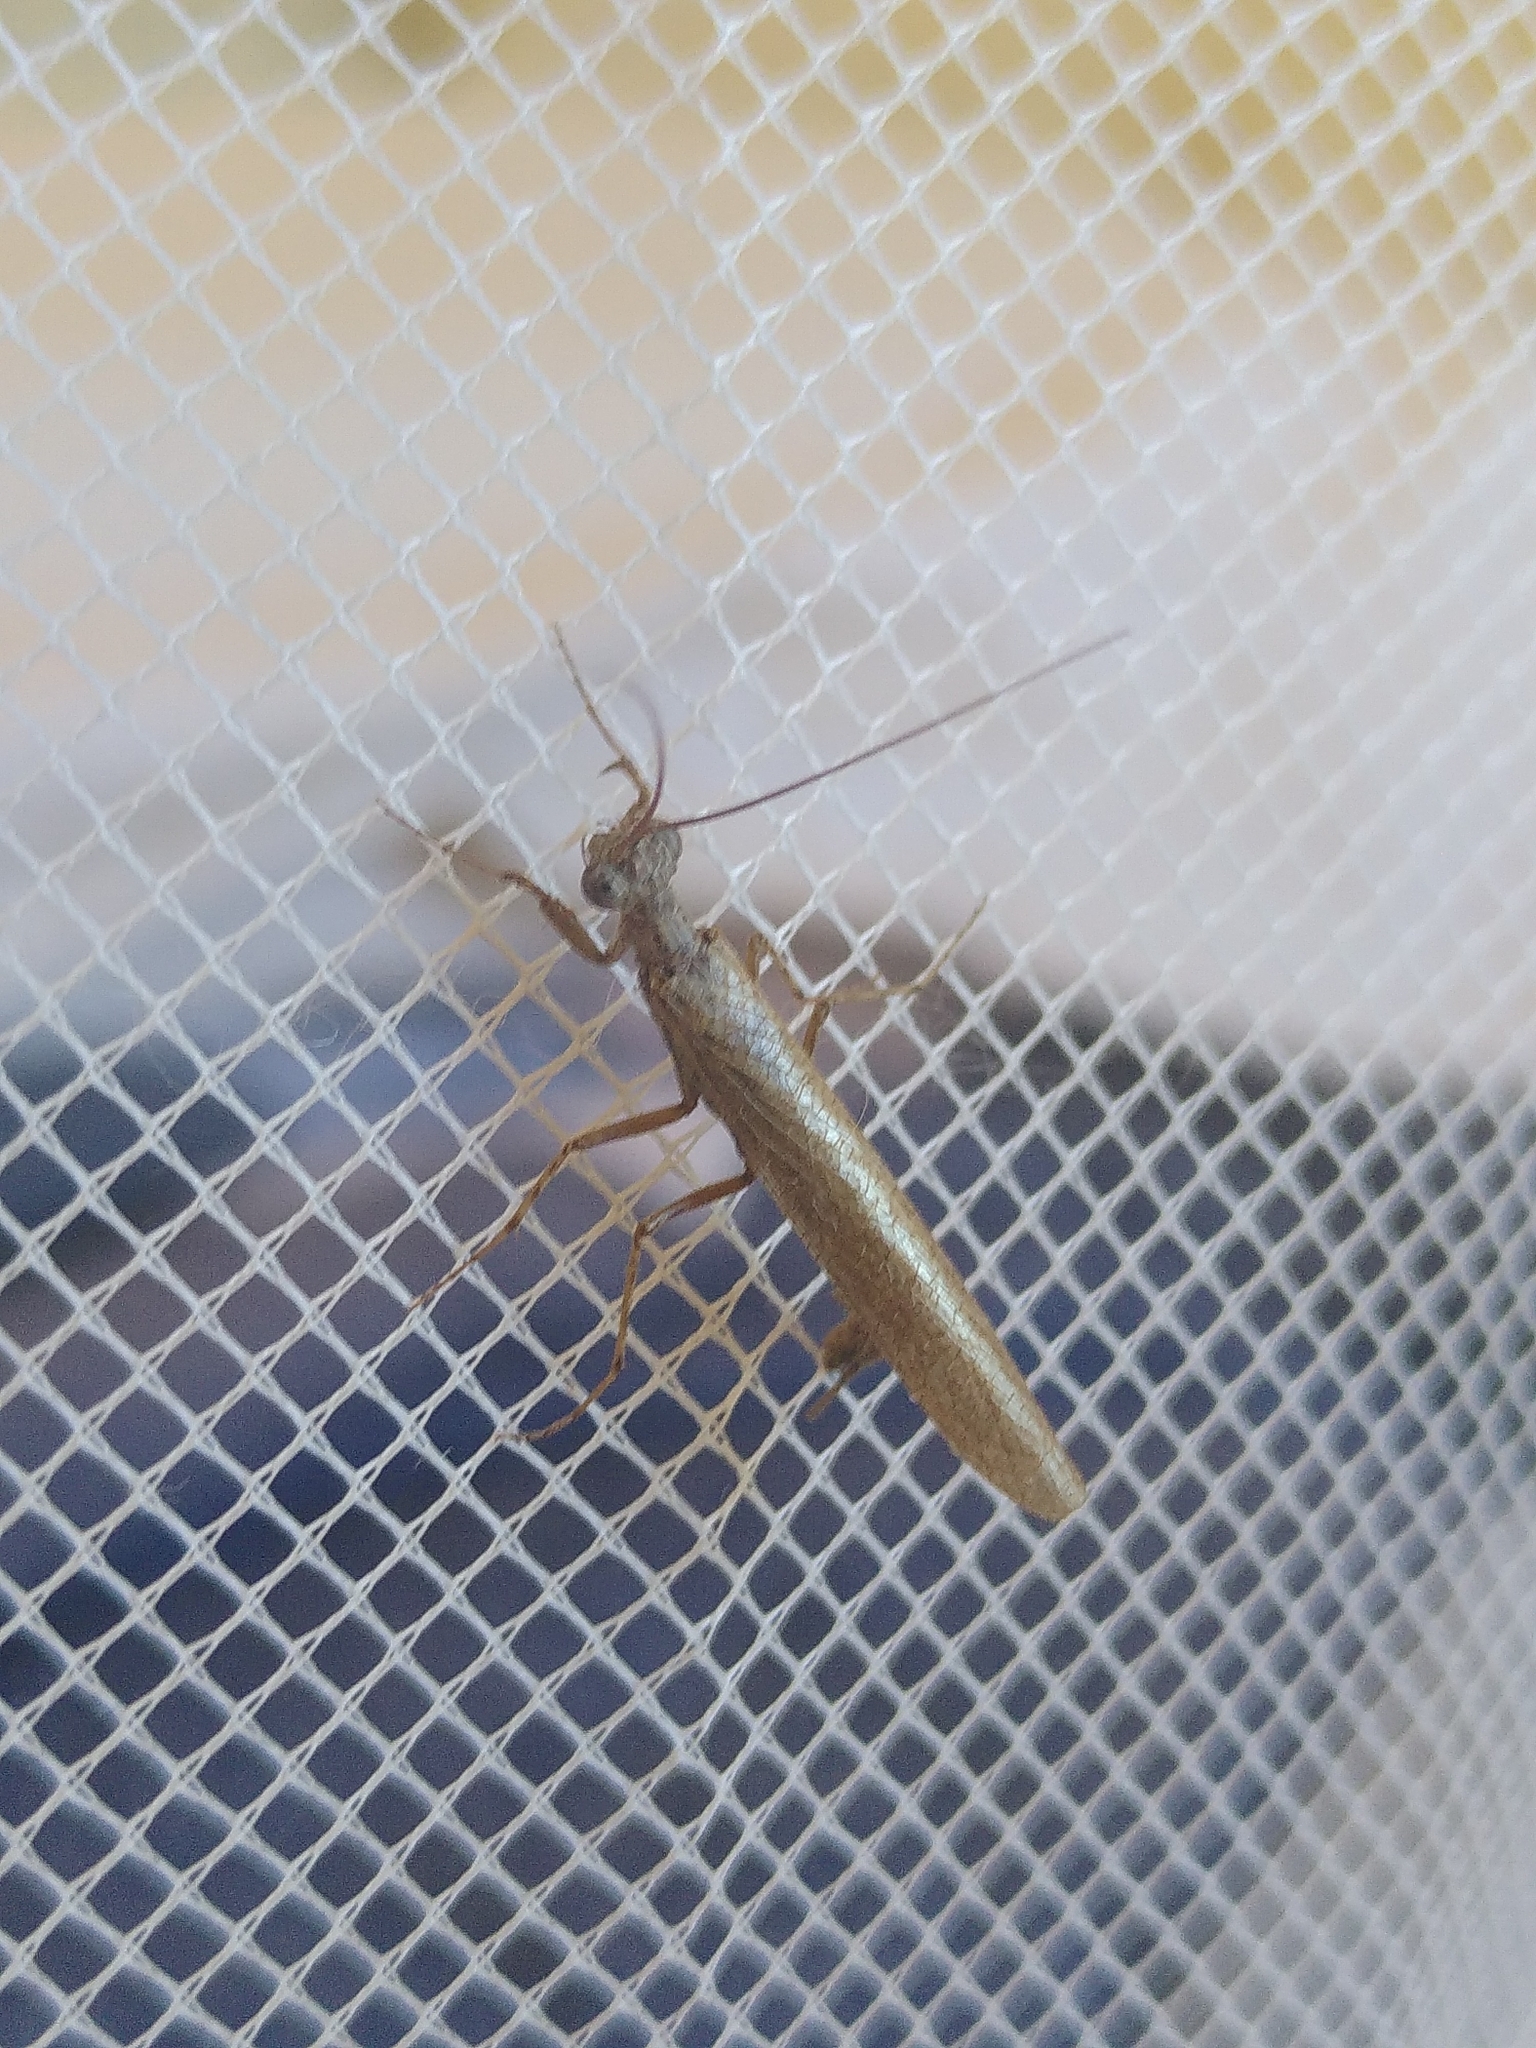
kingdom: Animalia
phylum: Arthropoda
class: Insecta
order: Mantodea
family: Amorphoscelidae
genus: Perlamantis
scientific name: Perlamantis alliberti
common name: Stonefly mantis
